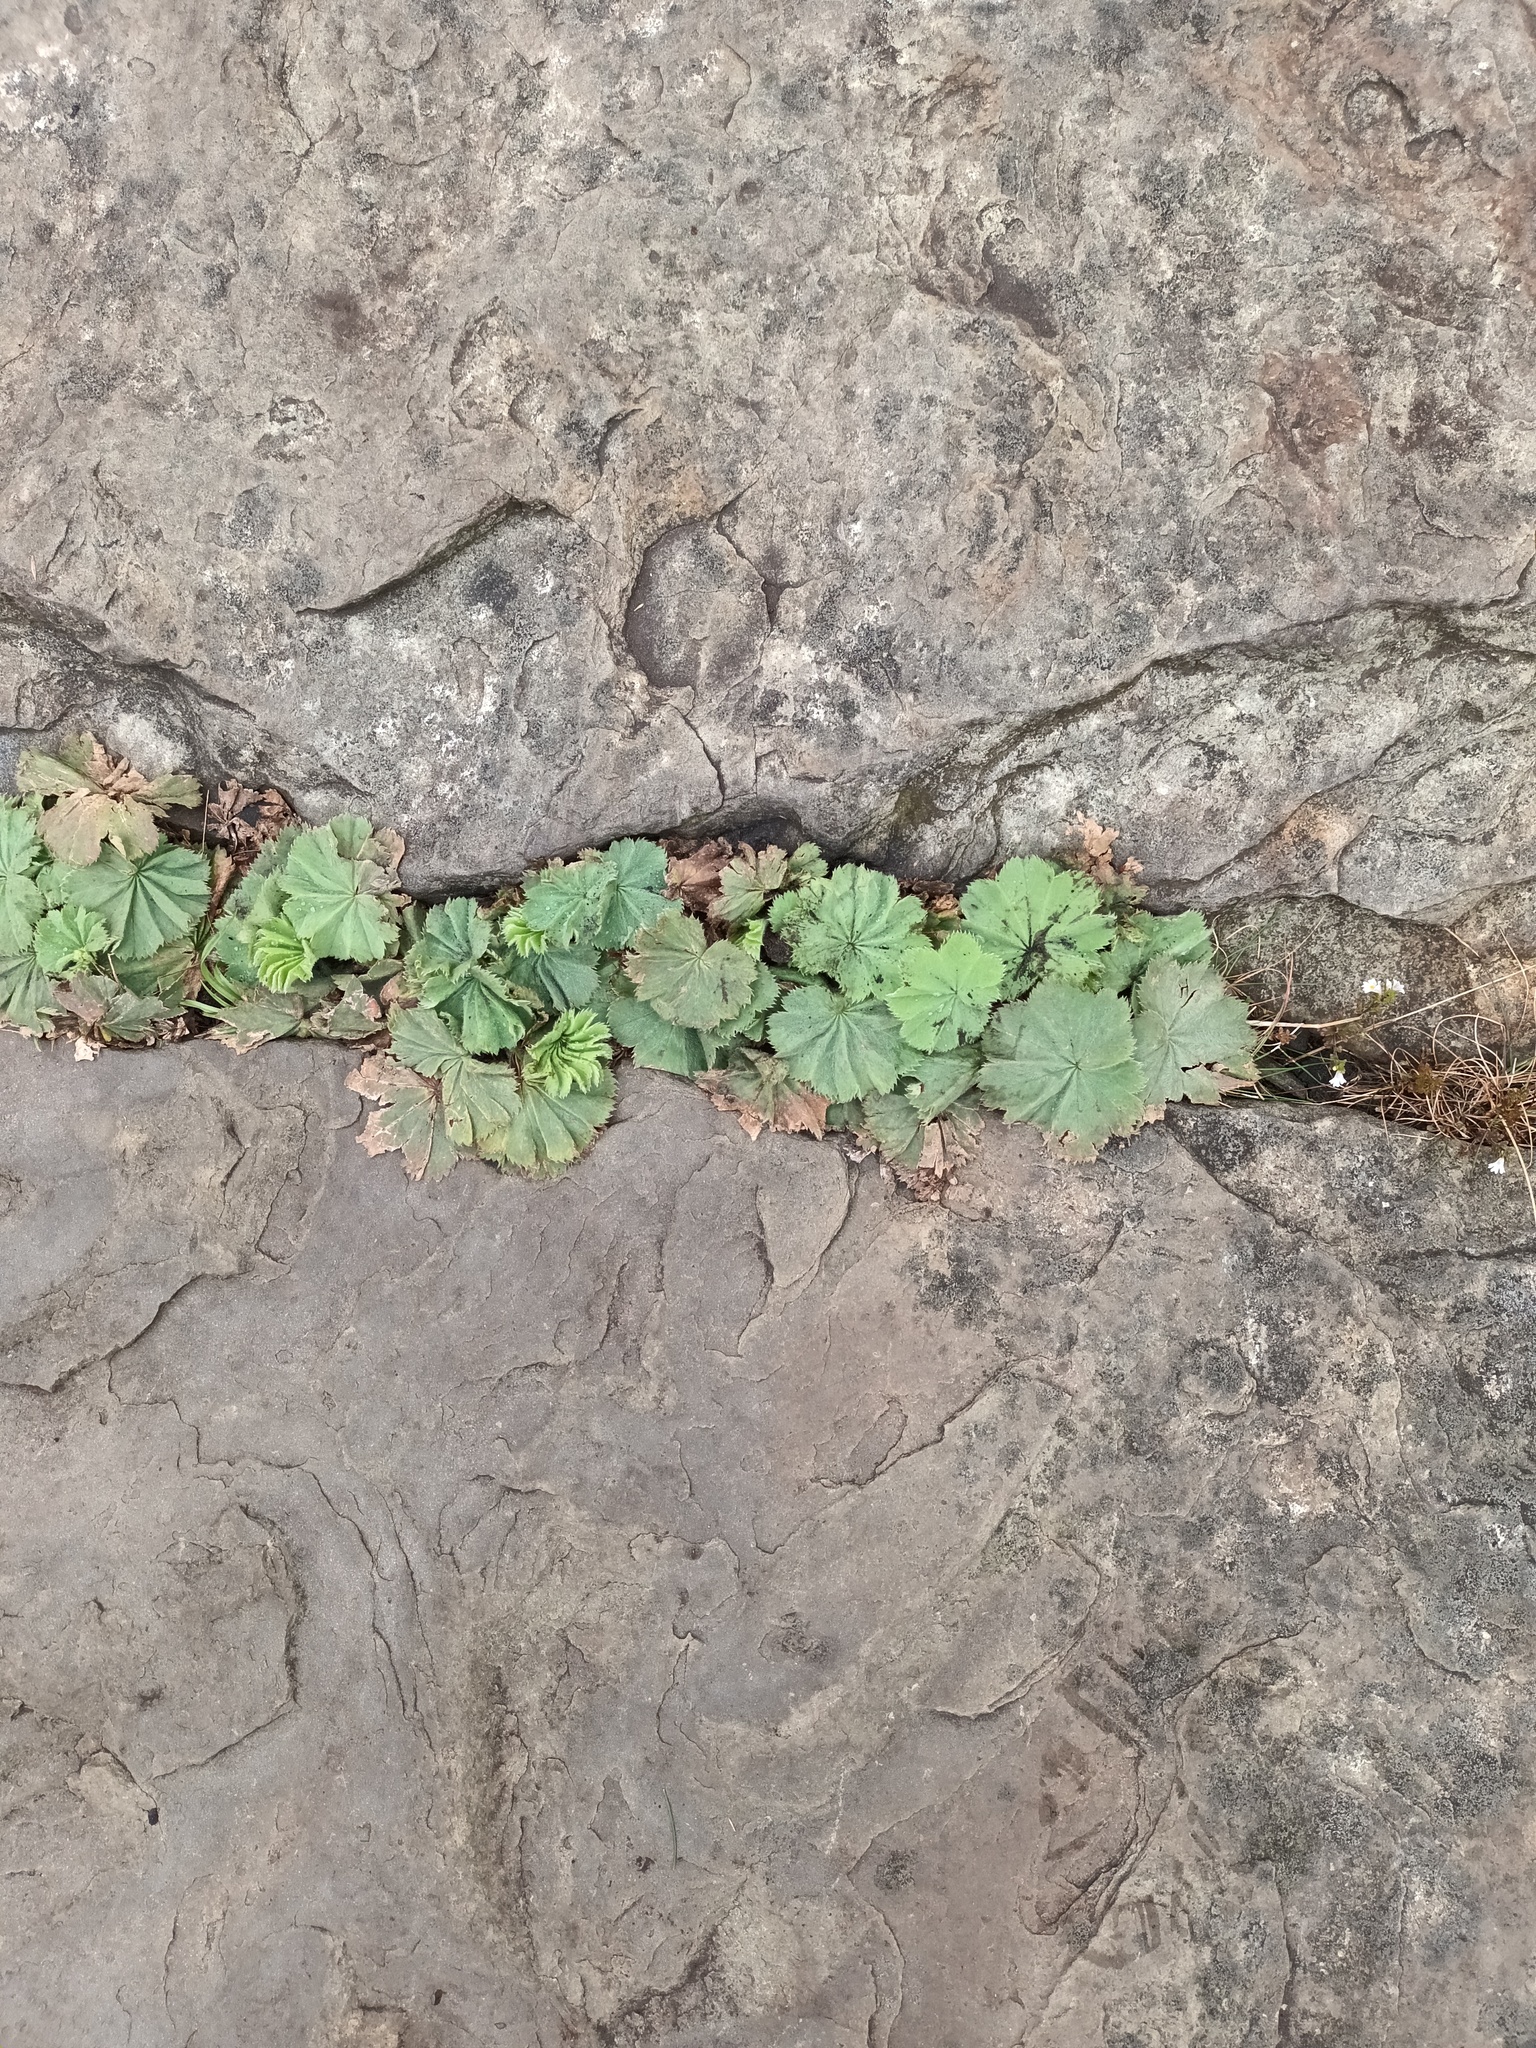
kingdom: Plantae
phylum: Tracheophyta
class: Magnoliopsida
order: Rosales
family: Rosaceae
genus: Alchemilla
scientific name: Alchemilla mollis
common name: Lady's-mantle
